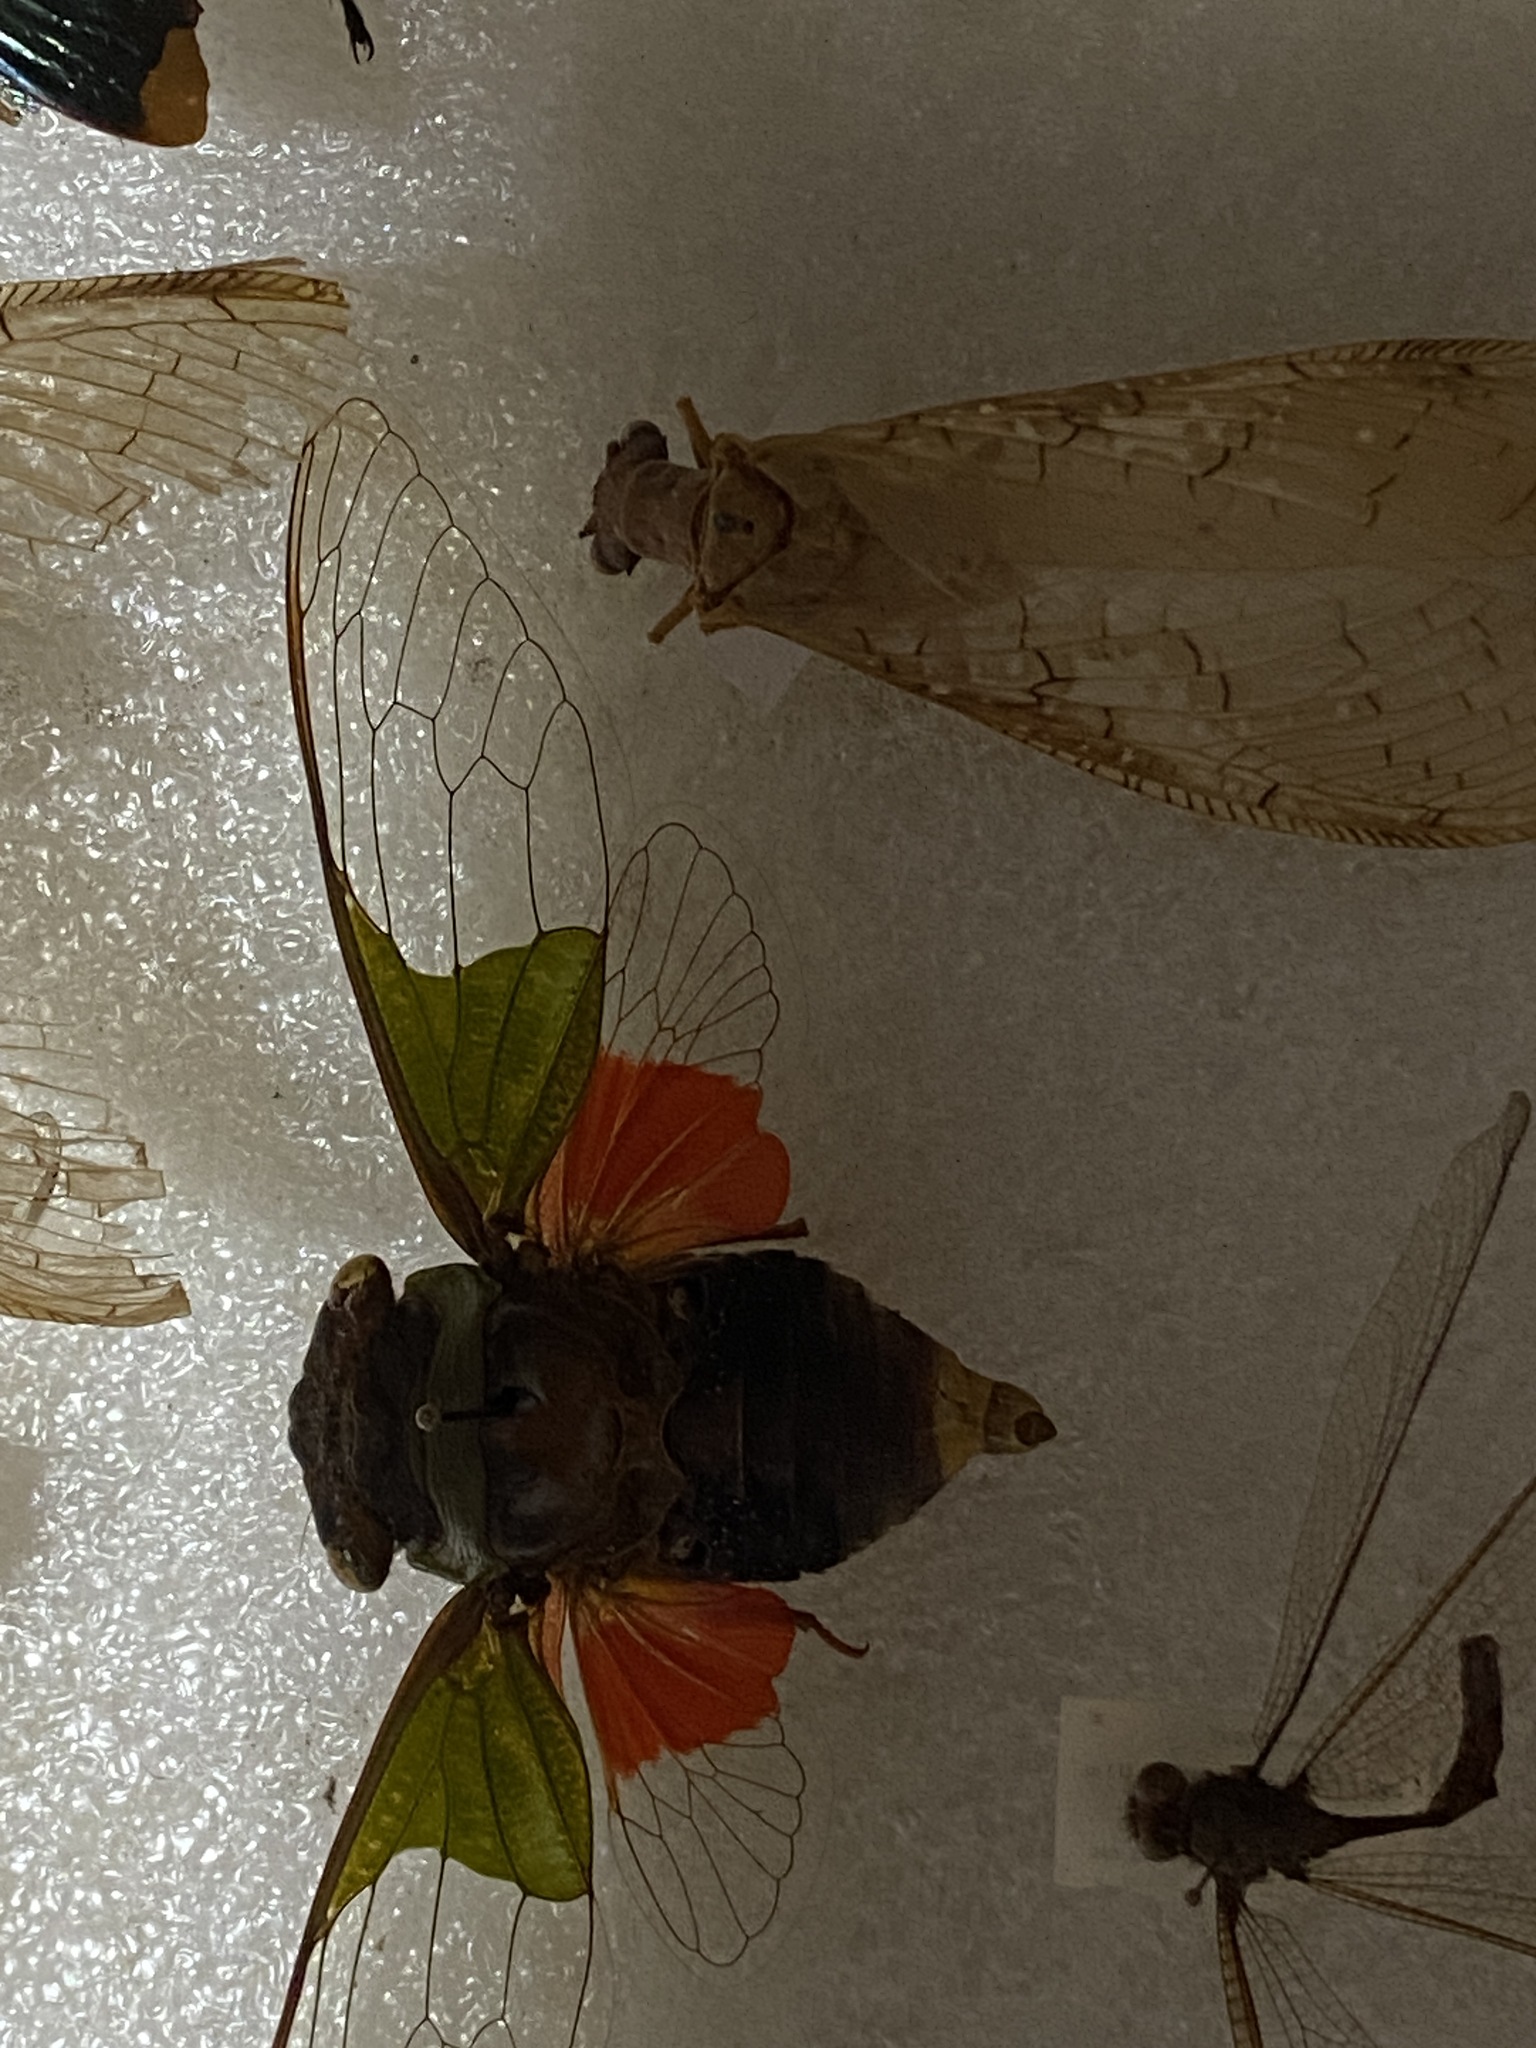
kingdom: Animalia
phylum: Arthropoda
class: Insecta
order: Hemiptera
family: Cicadidae
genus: Hemisciera
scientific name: Hemisciera maculipennis
